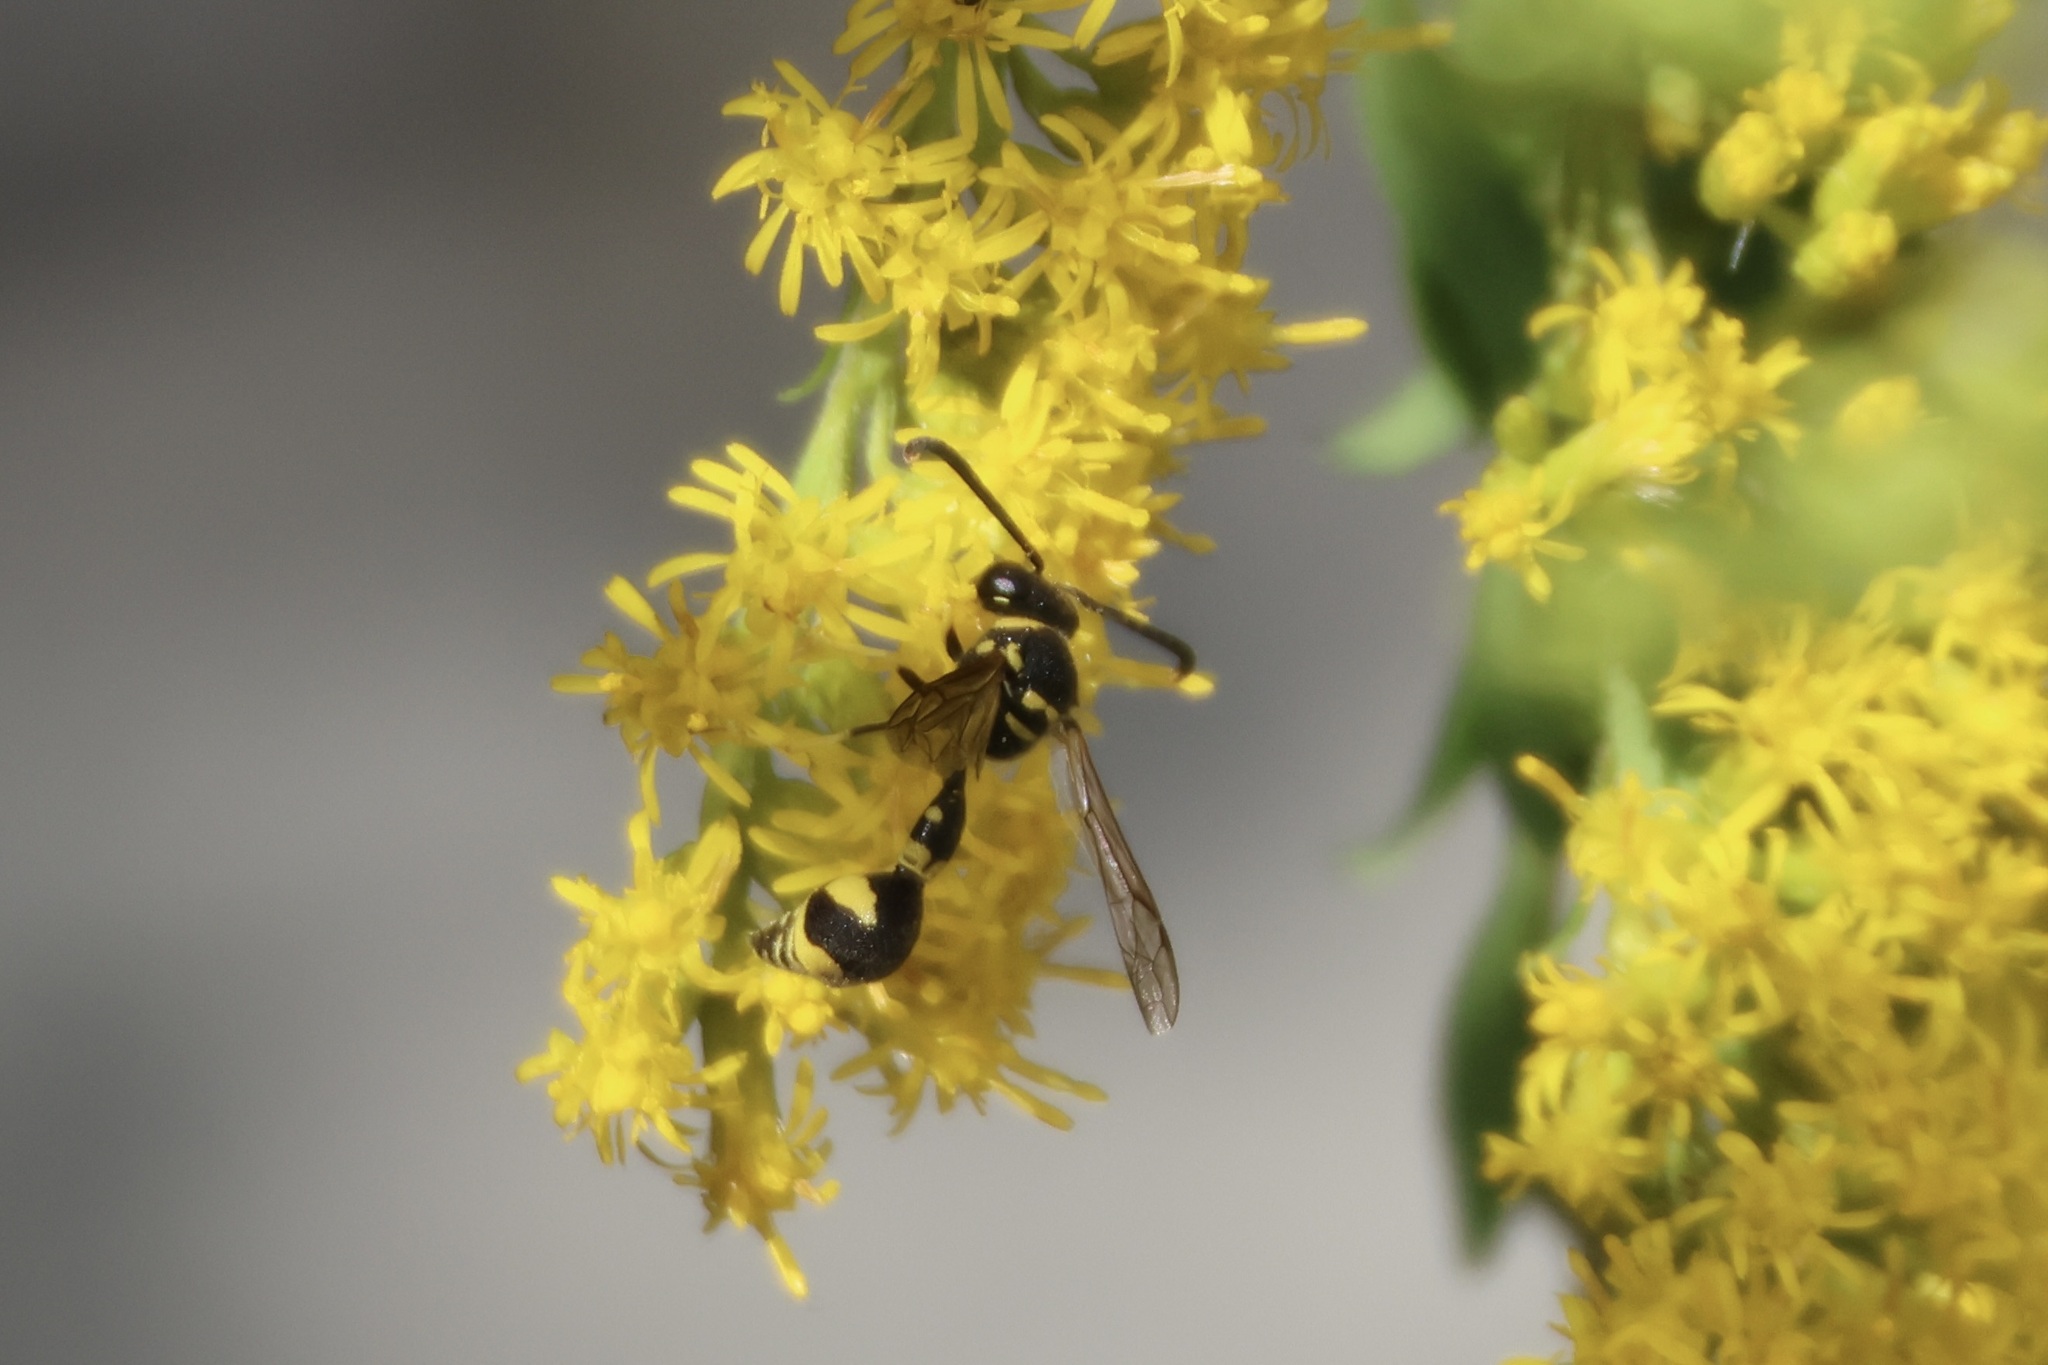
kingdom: Animalia
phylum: Arthropoda
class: Insecta
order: Hymenoptera
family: Vespidae
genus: Eumenes
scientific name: Eumenes mediterraneus
